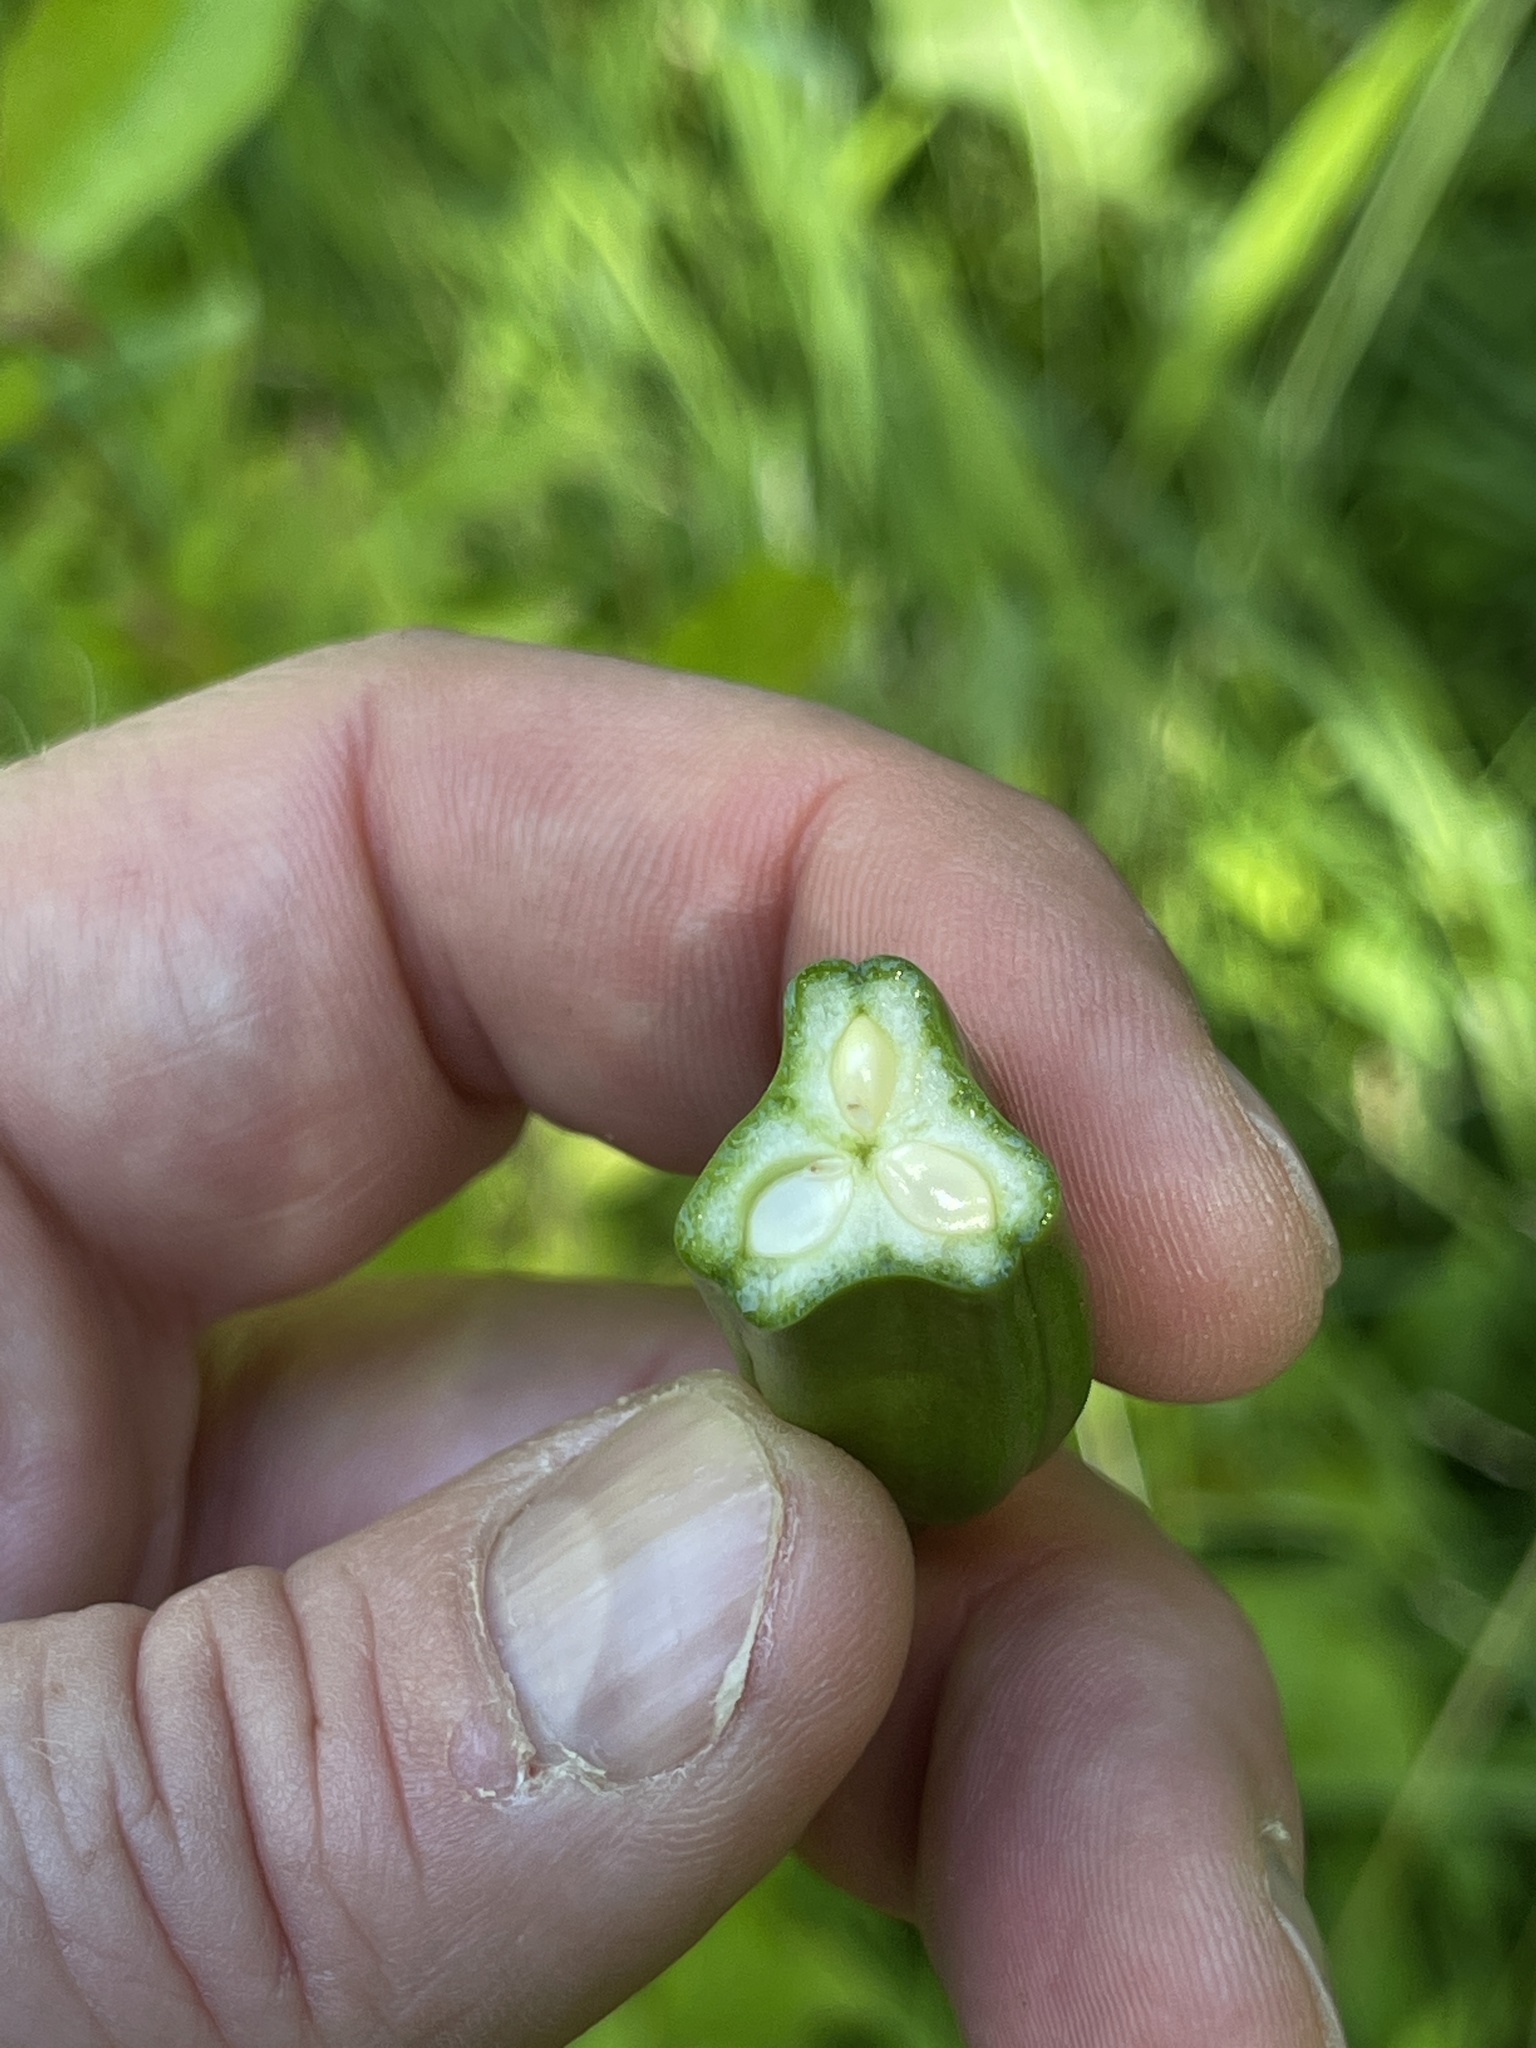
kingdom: Plantae
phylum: Tracheophyta
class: Liliopsida
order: Asparagales
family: Iridaceae
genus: Iris
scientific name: Iris pseudacorus
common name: Yellow flag
